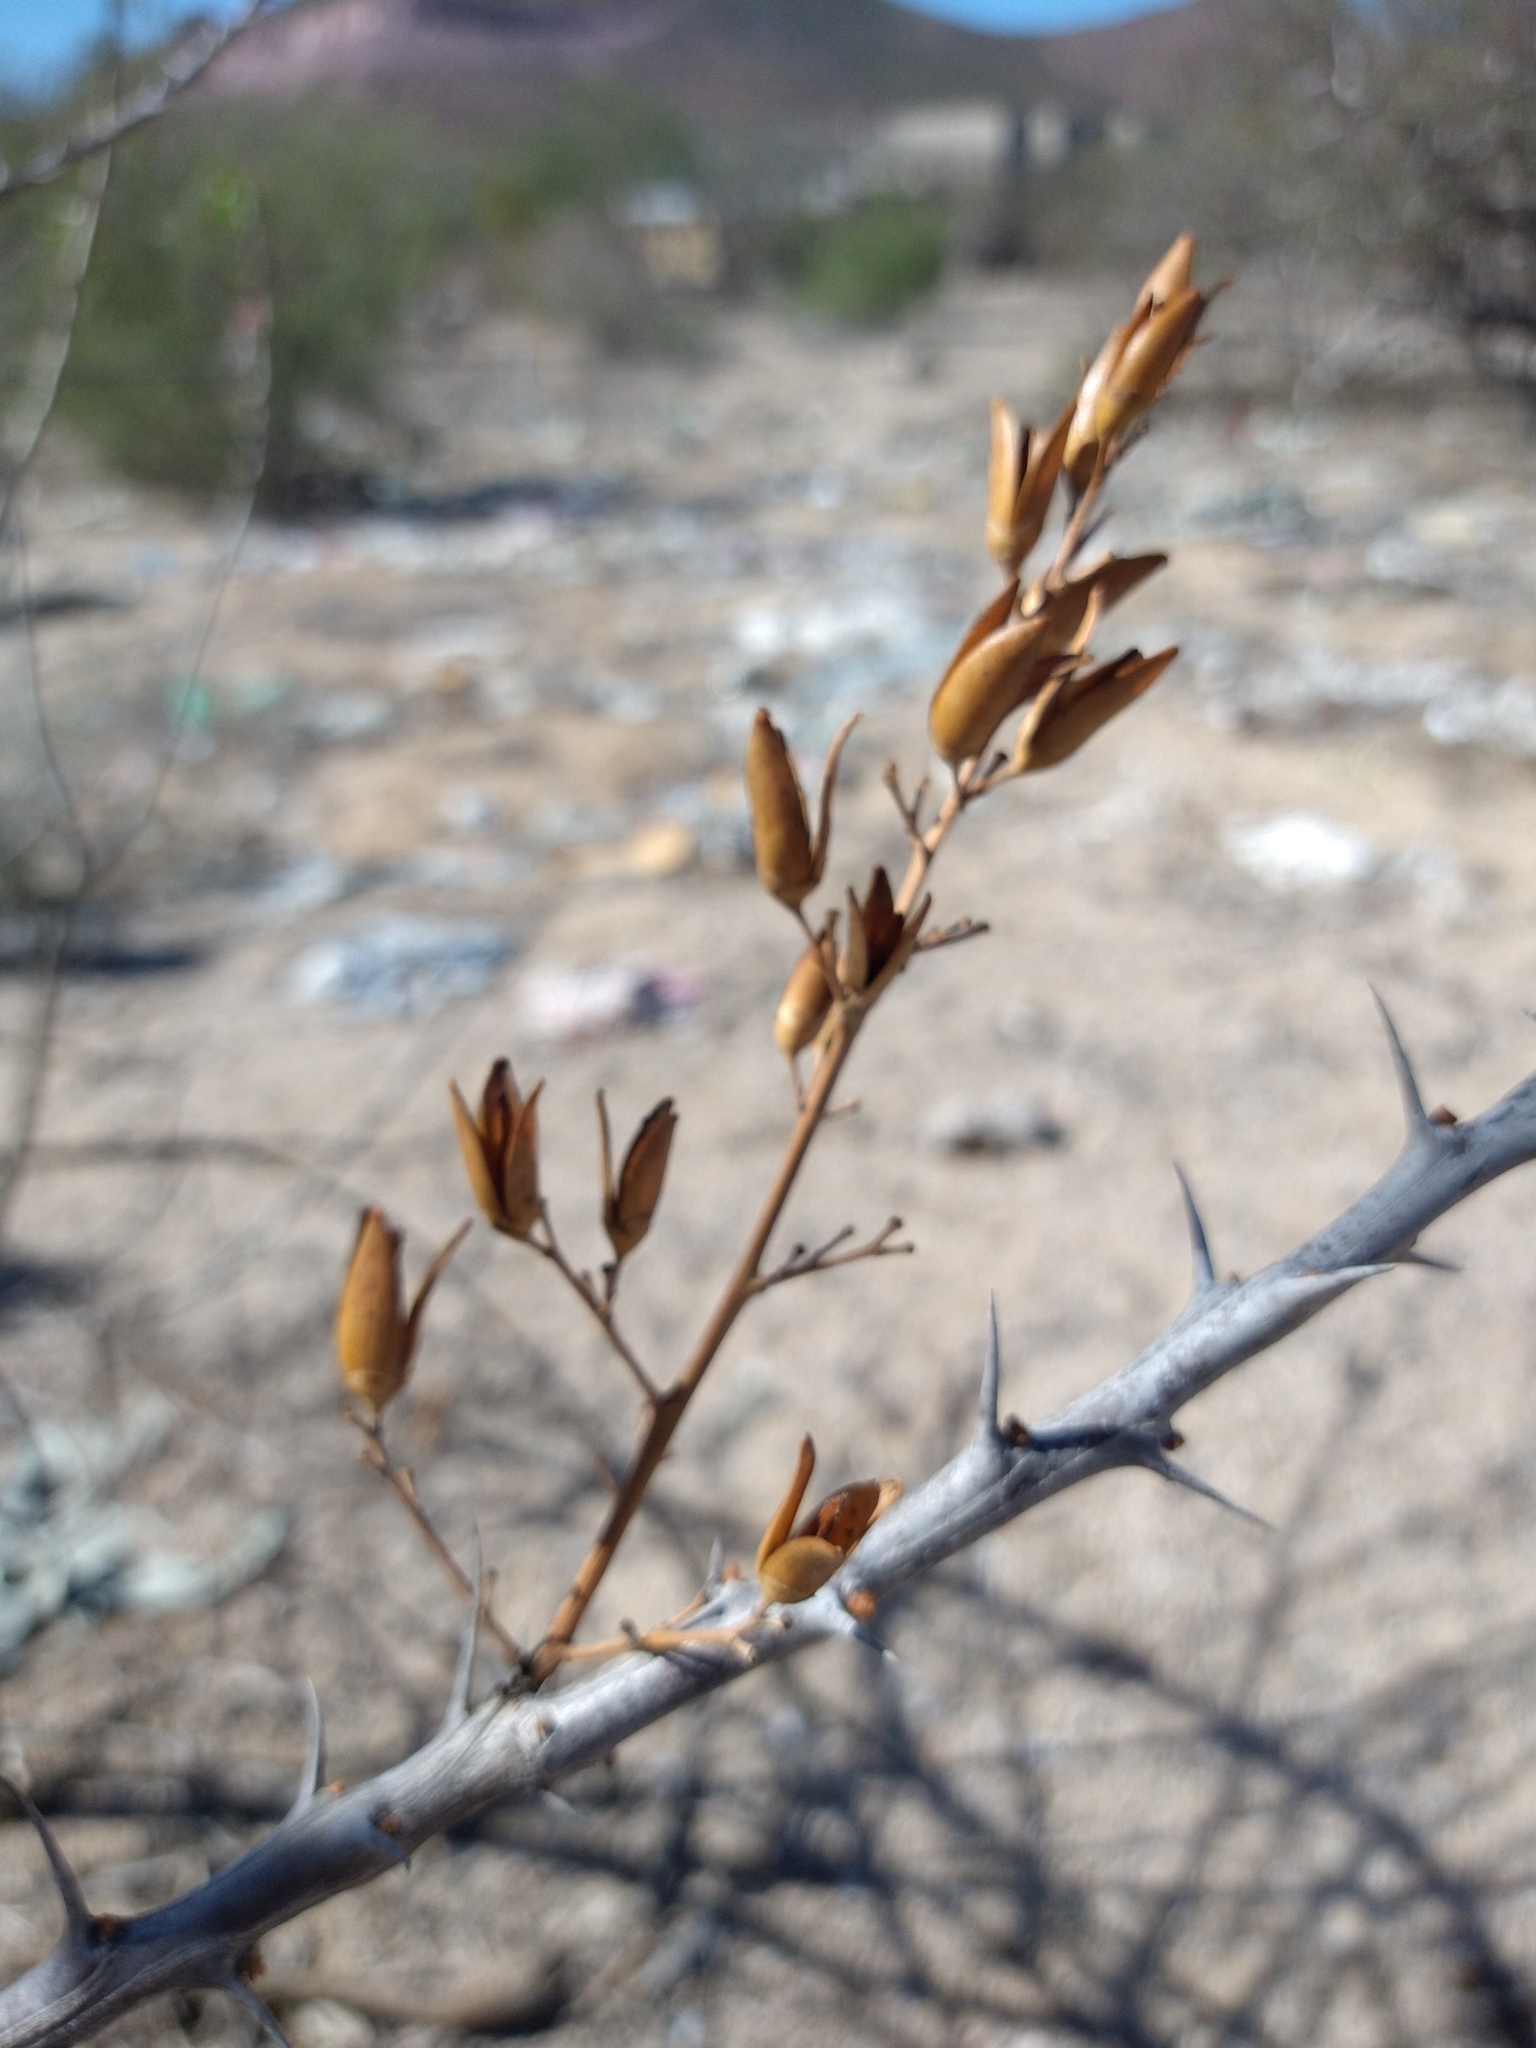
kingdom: Plantae
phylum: Tracheophyta
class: Magnoliopsida
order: Ericales
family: Fouquieriaceae
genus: Fouquieria
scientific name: Fouquieria diguetii
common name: Adam's tree
